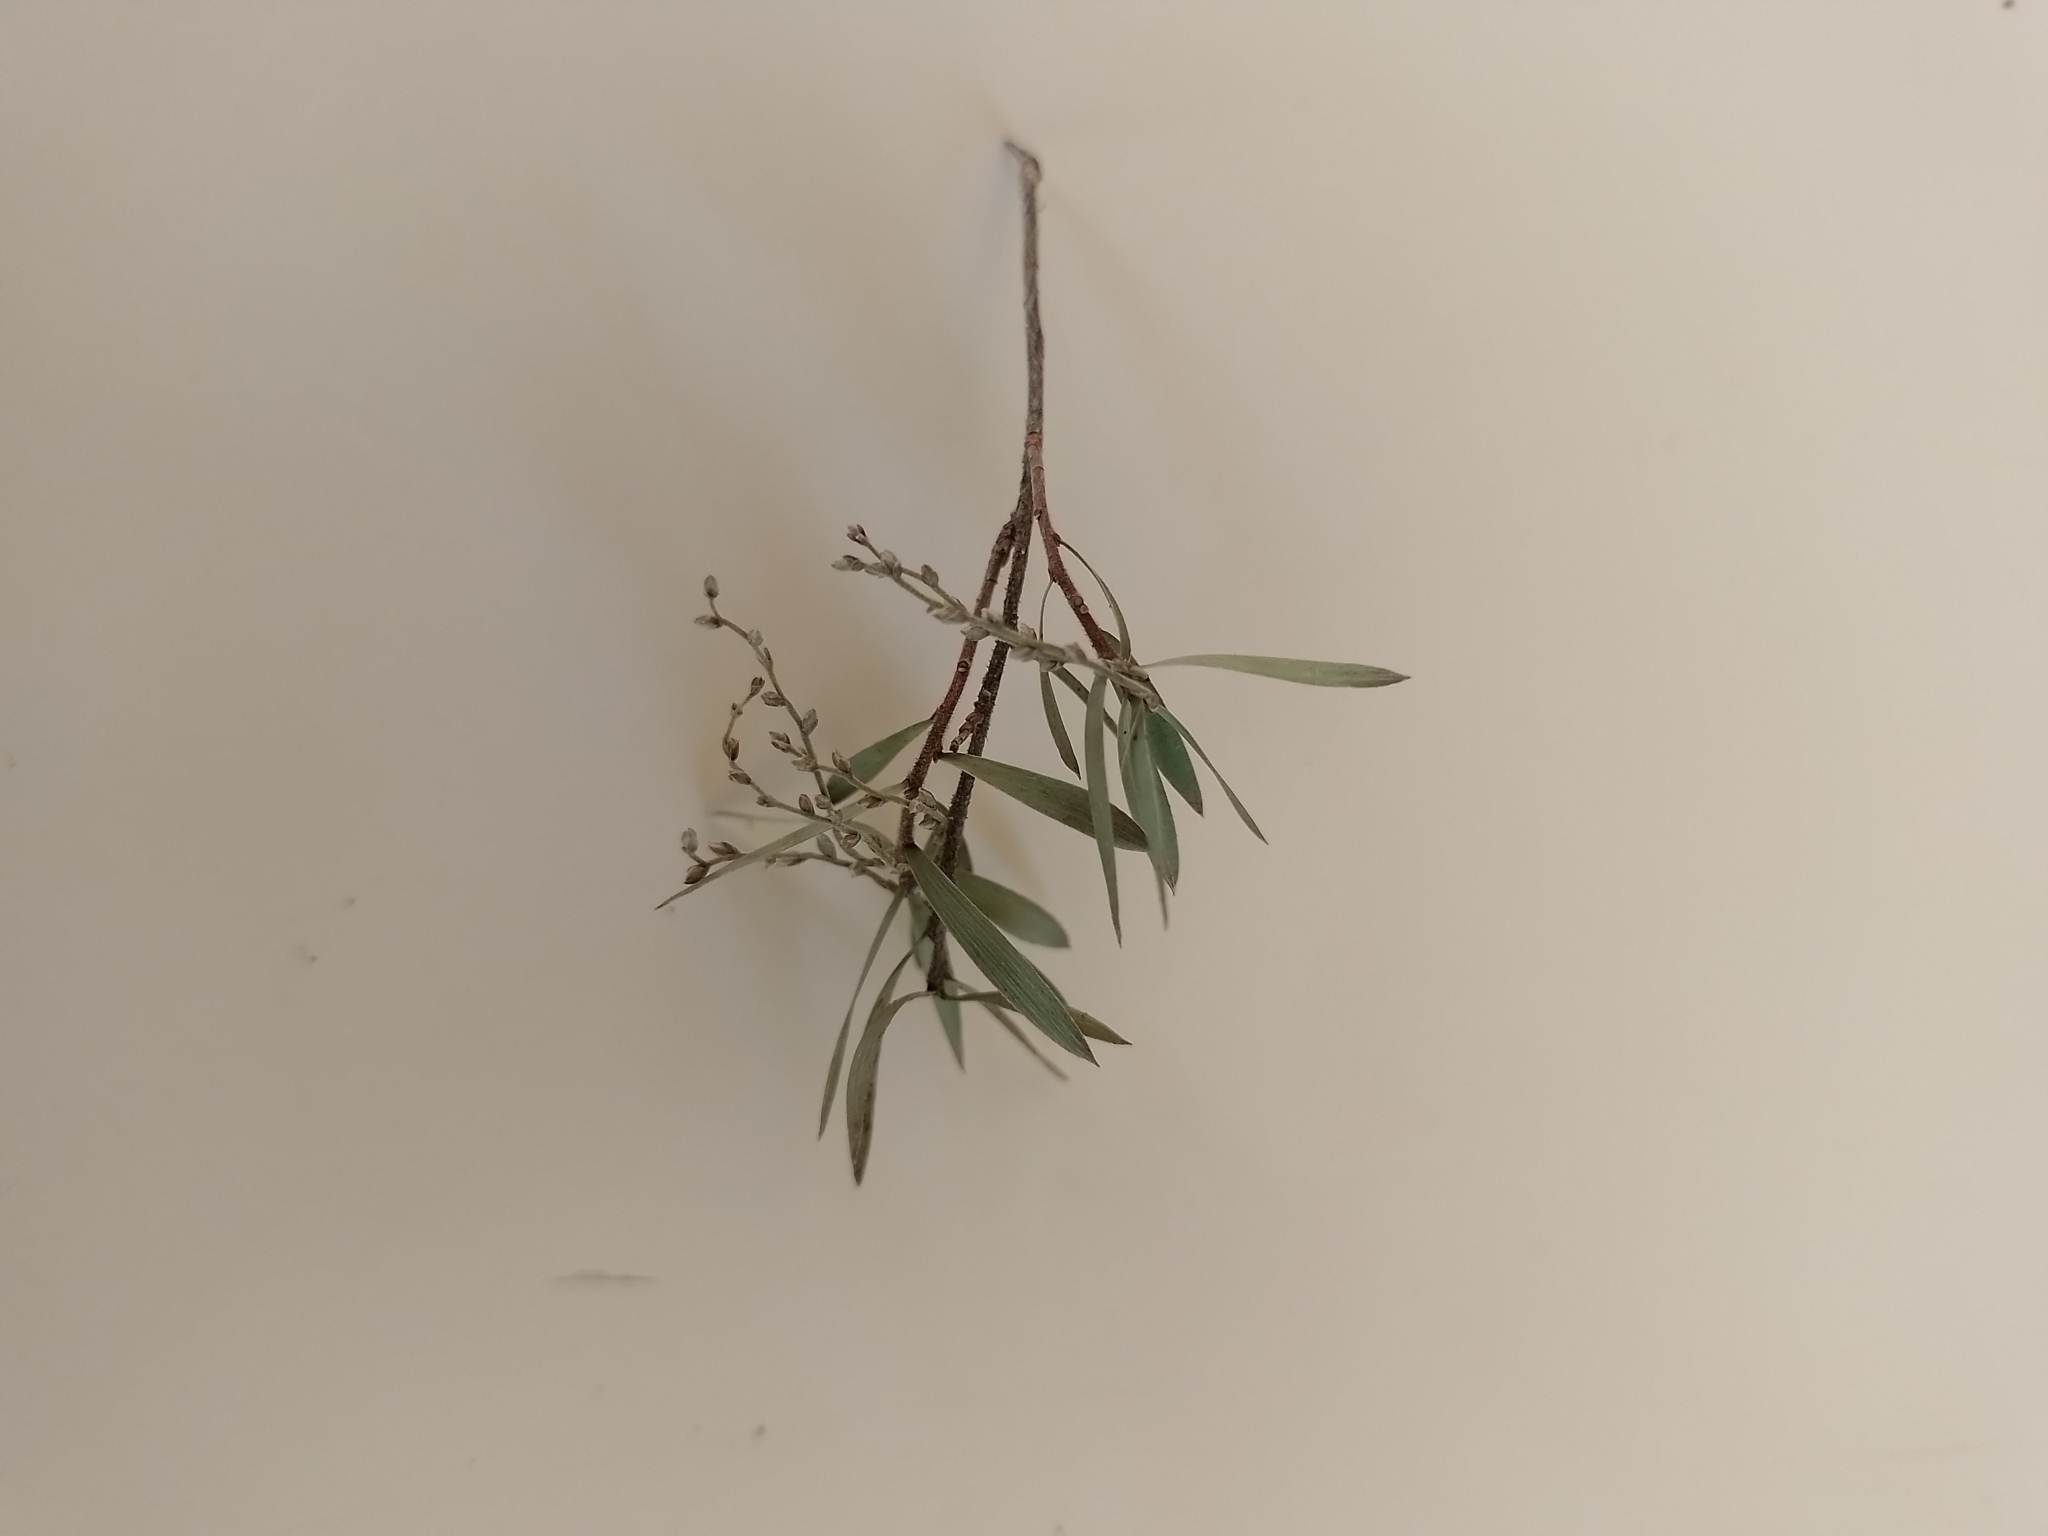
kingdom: Plantae
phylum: Tracheophyta
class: Magnoliopsida
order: Ericales
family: Ericaceae
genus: Leucopogon
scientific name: Leucopogon fasciculatus
